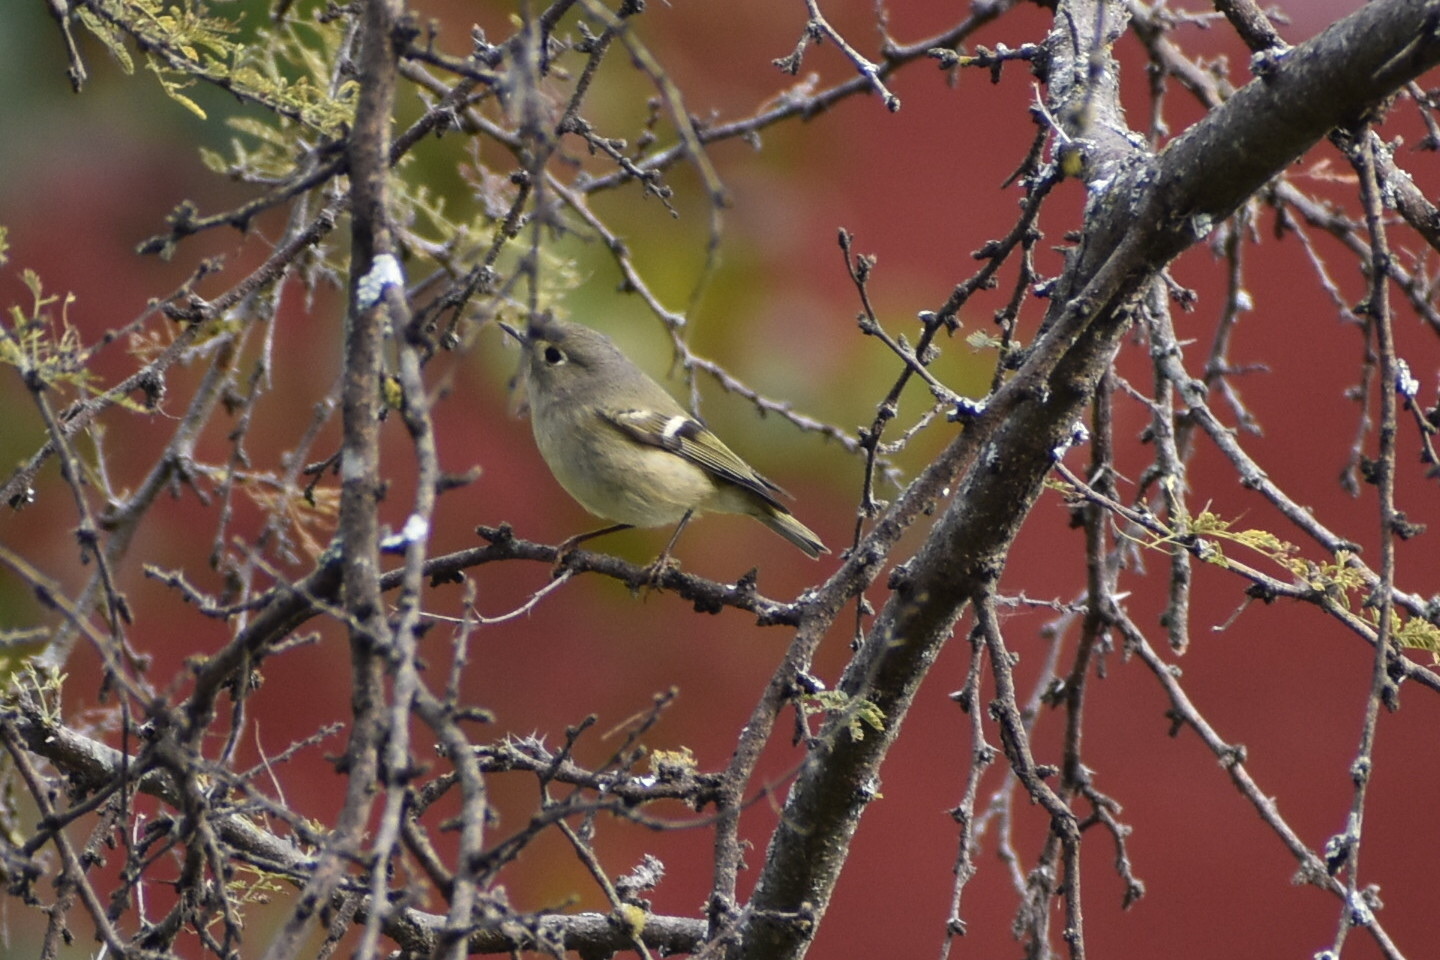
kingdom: Animalia
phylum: Chordata
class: Aves
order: Passeriformes
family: Regulidae
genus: Regulus
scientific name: Regulus calendula
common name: Ruby-crowned kinglet
